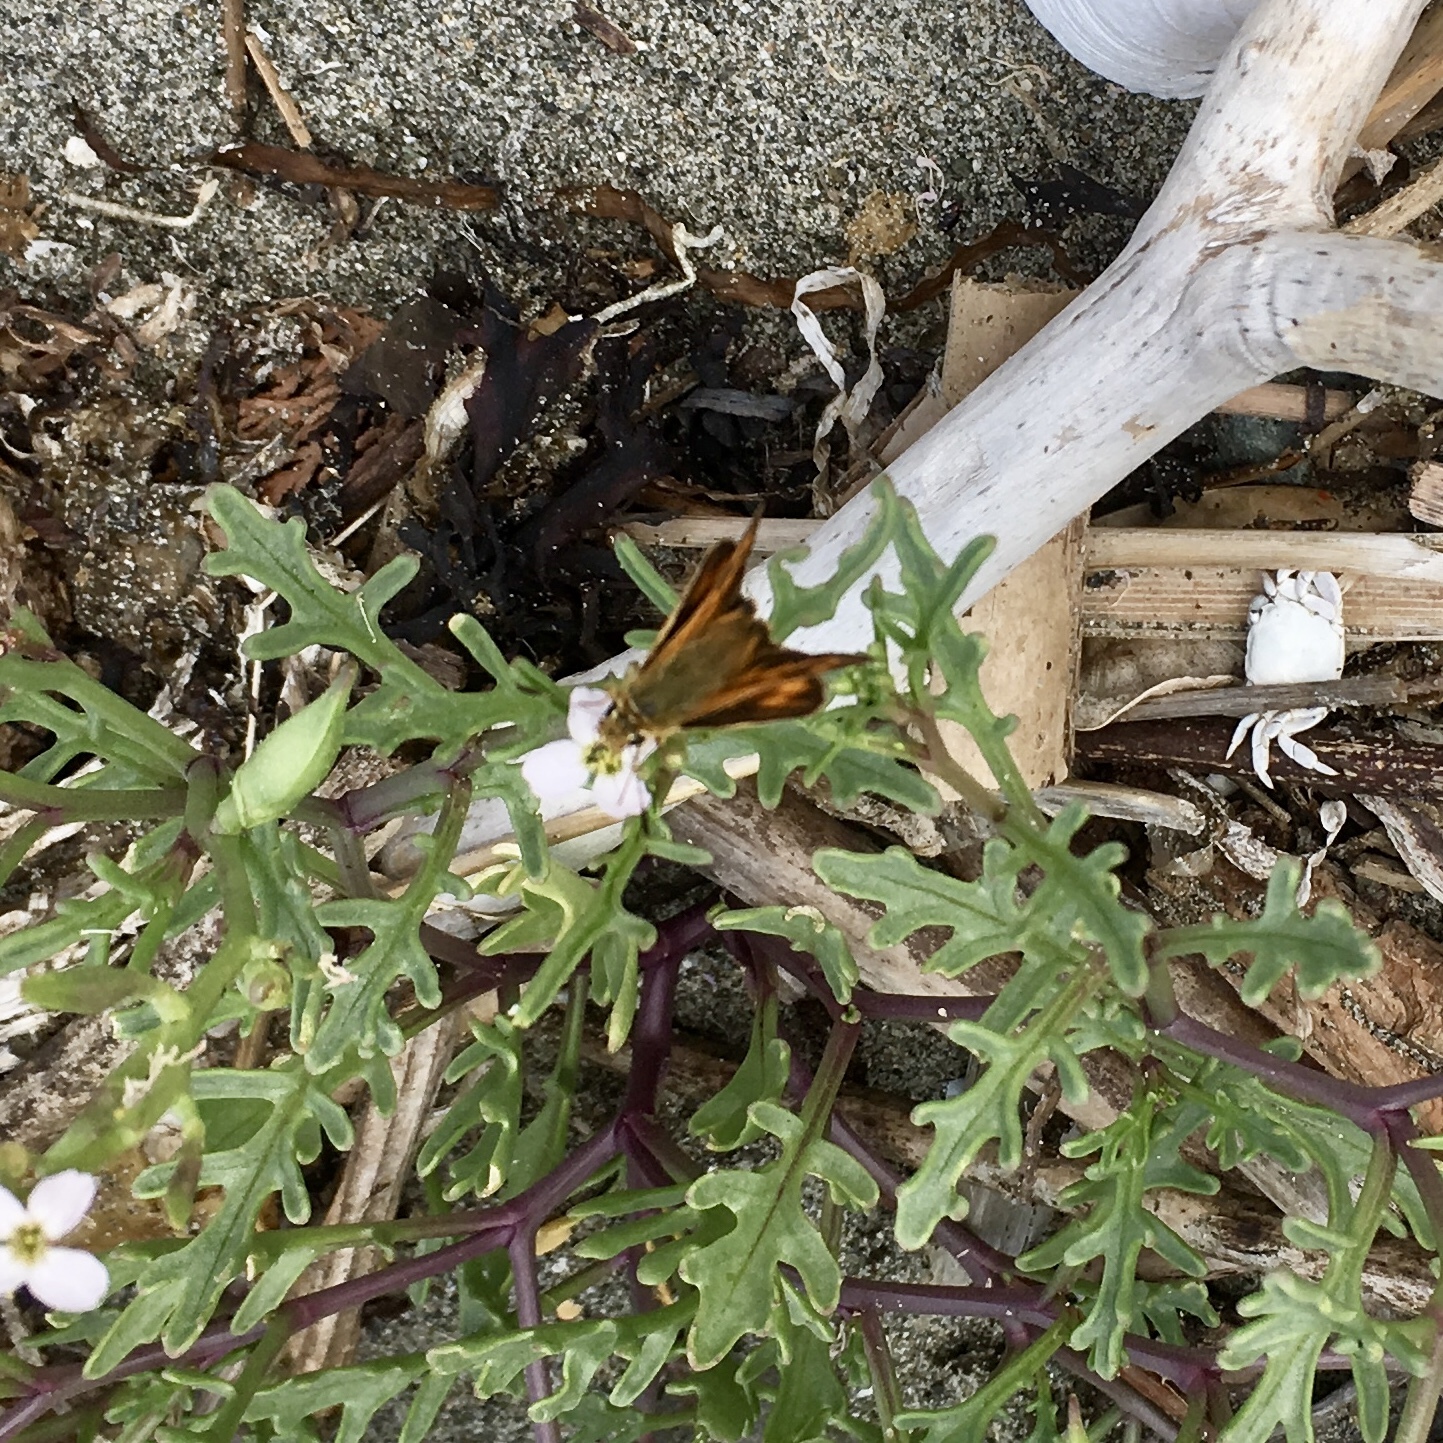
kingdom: Animalia
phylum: Arthropoda
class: Insecta
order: Lepidoptera
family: Hesperiidae
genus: Ochlodes
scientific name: Ochlodes sylvanoides
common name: Woodland skipper
